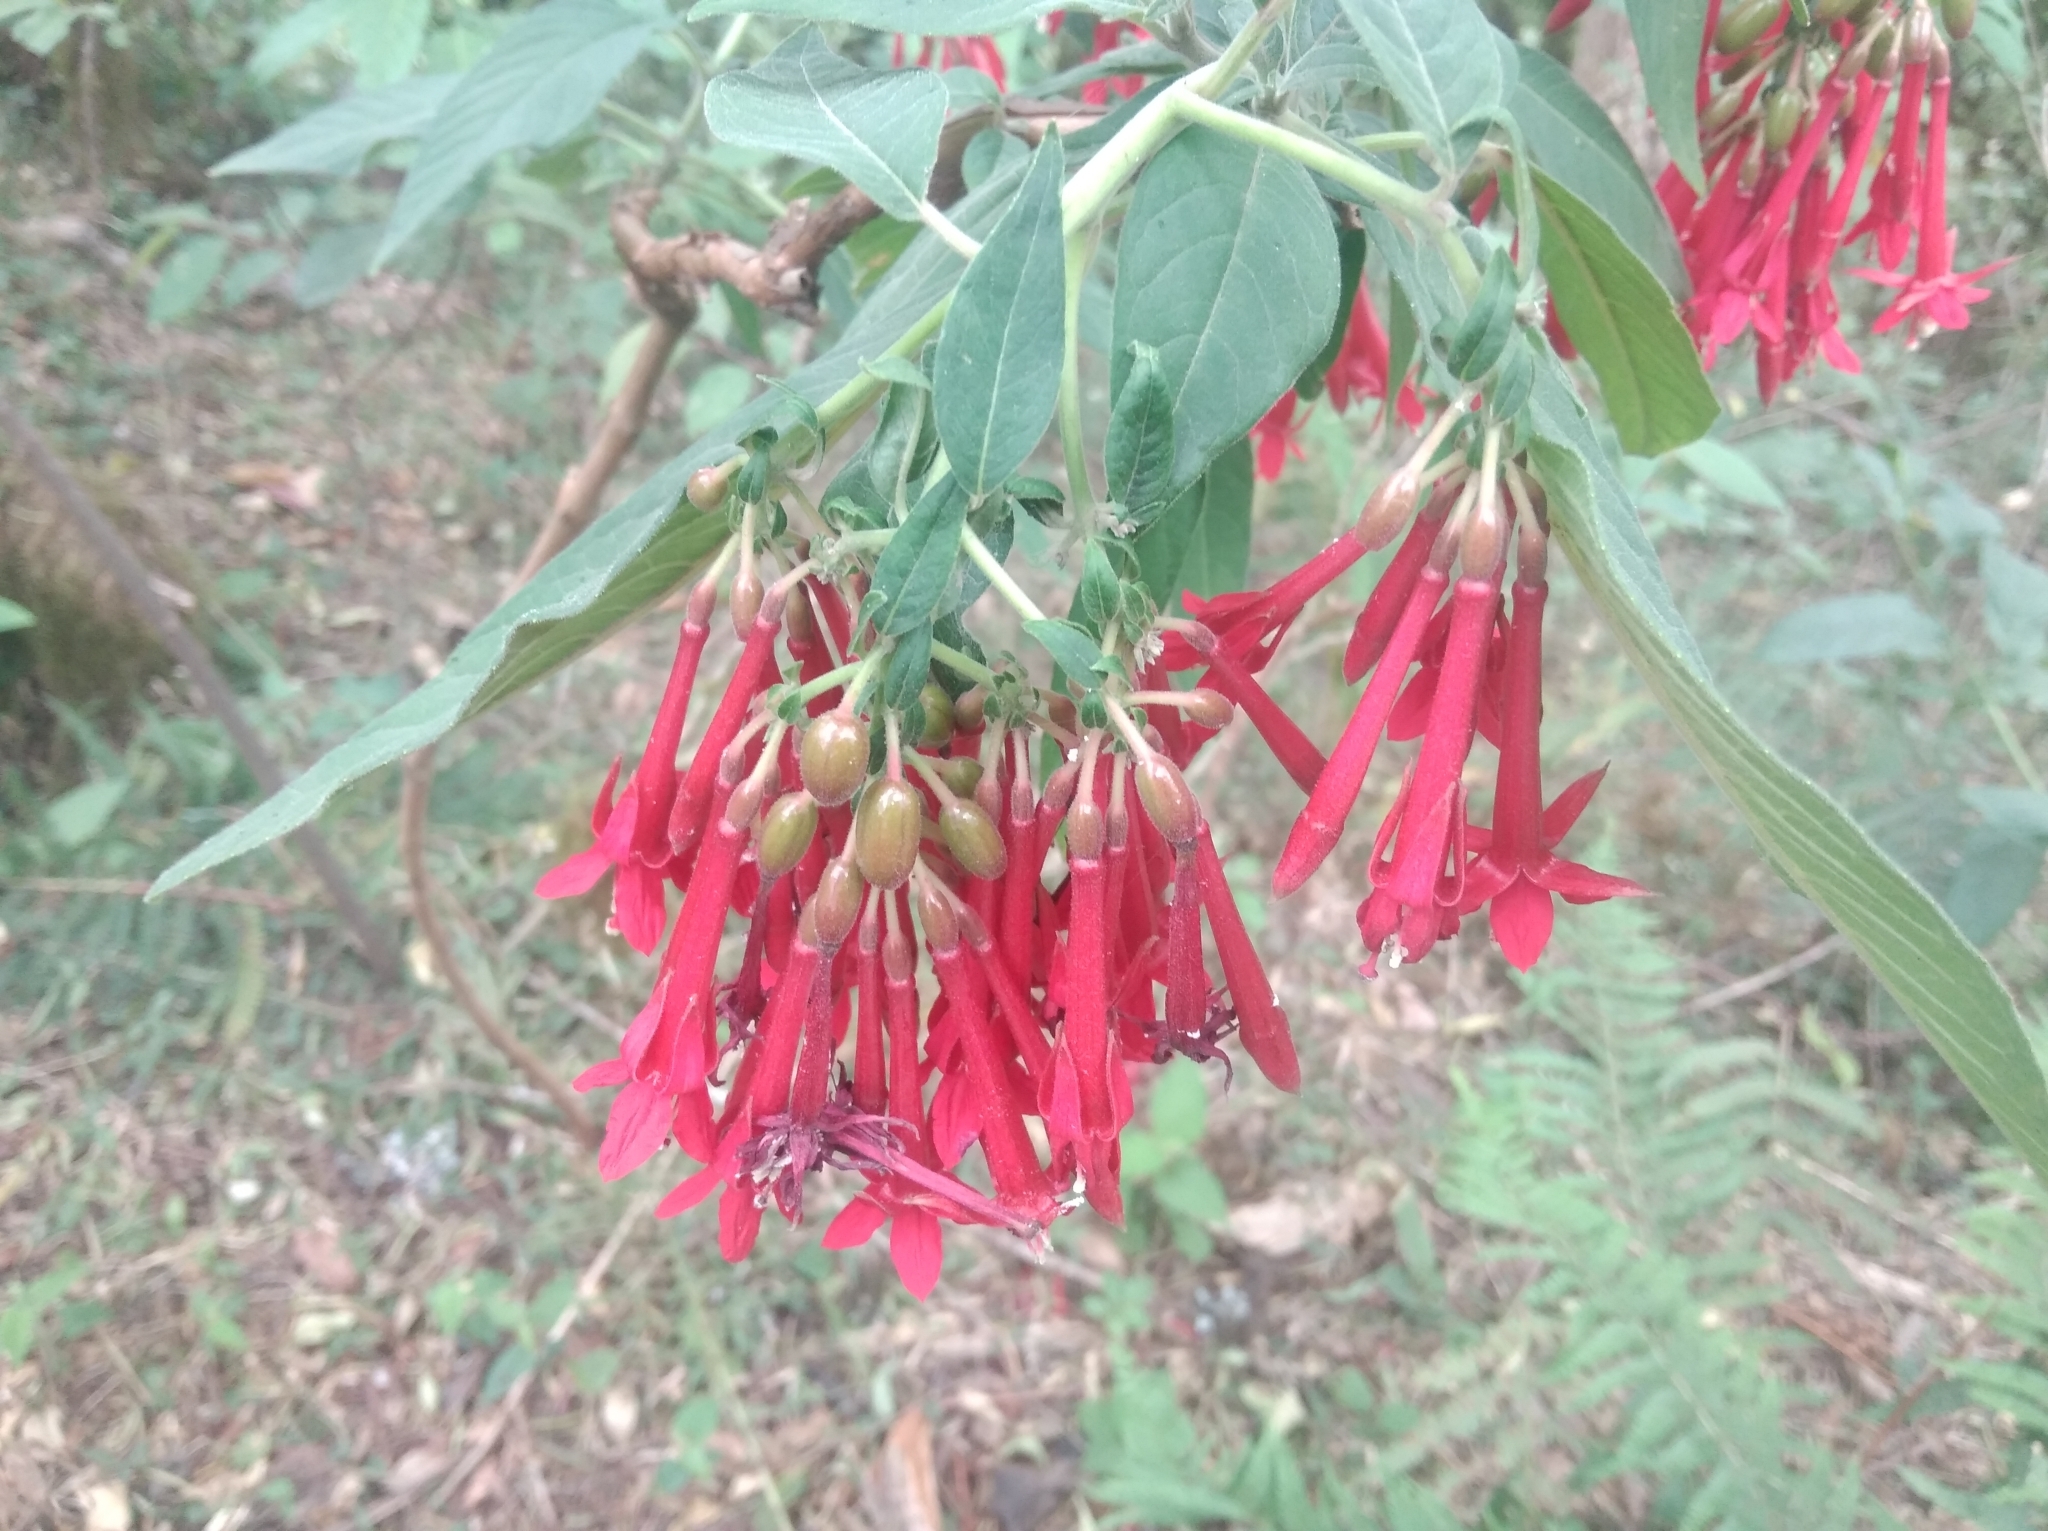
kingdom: Plantae
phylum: Tracheophyta
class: Magnoliopsida
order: Myrtales
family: Onagraceae
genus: Fuchsia
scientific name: Fuchsia boliviana
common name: Bolivian fuchsia
